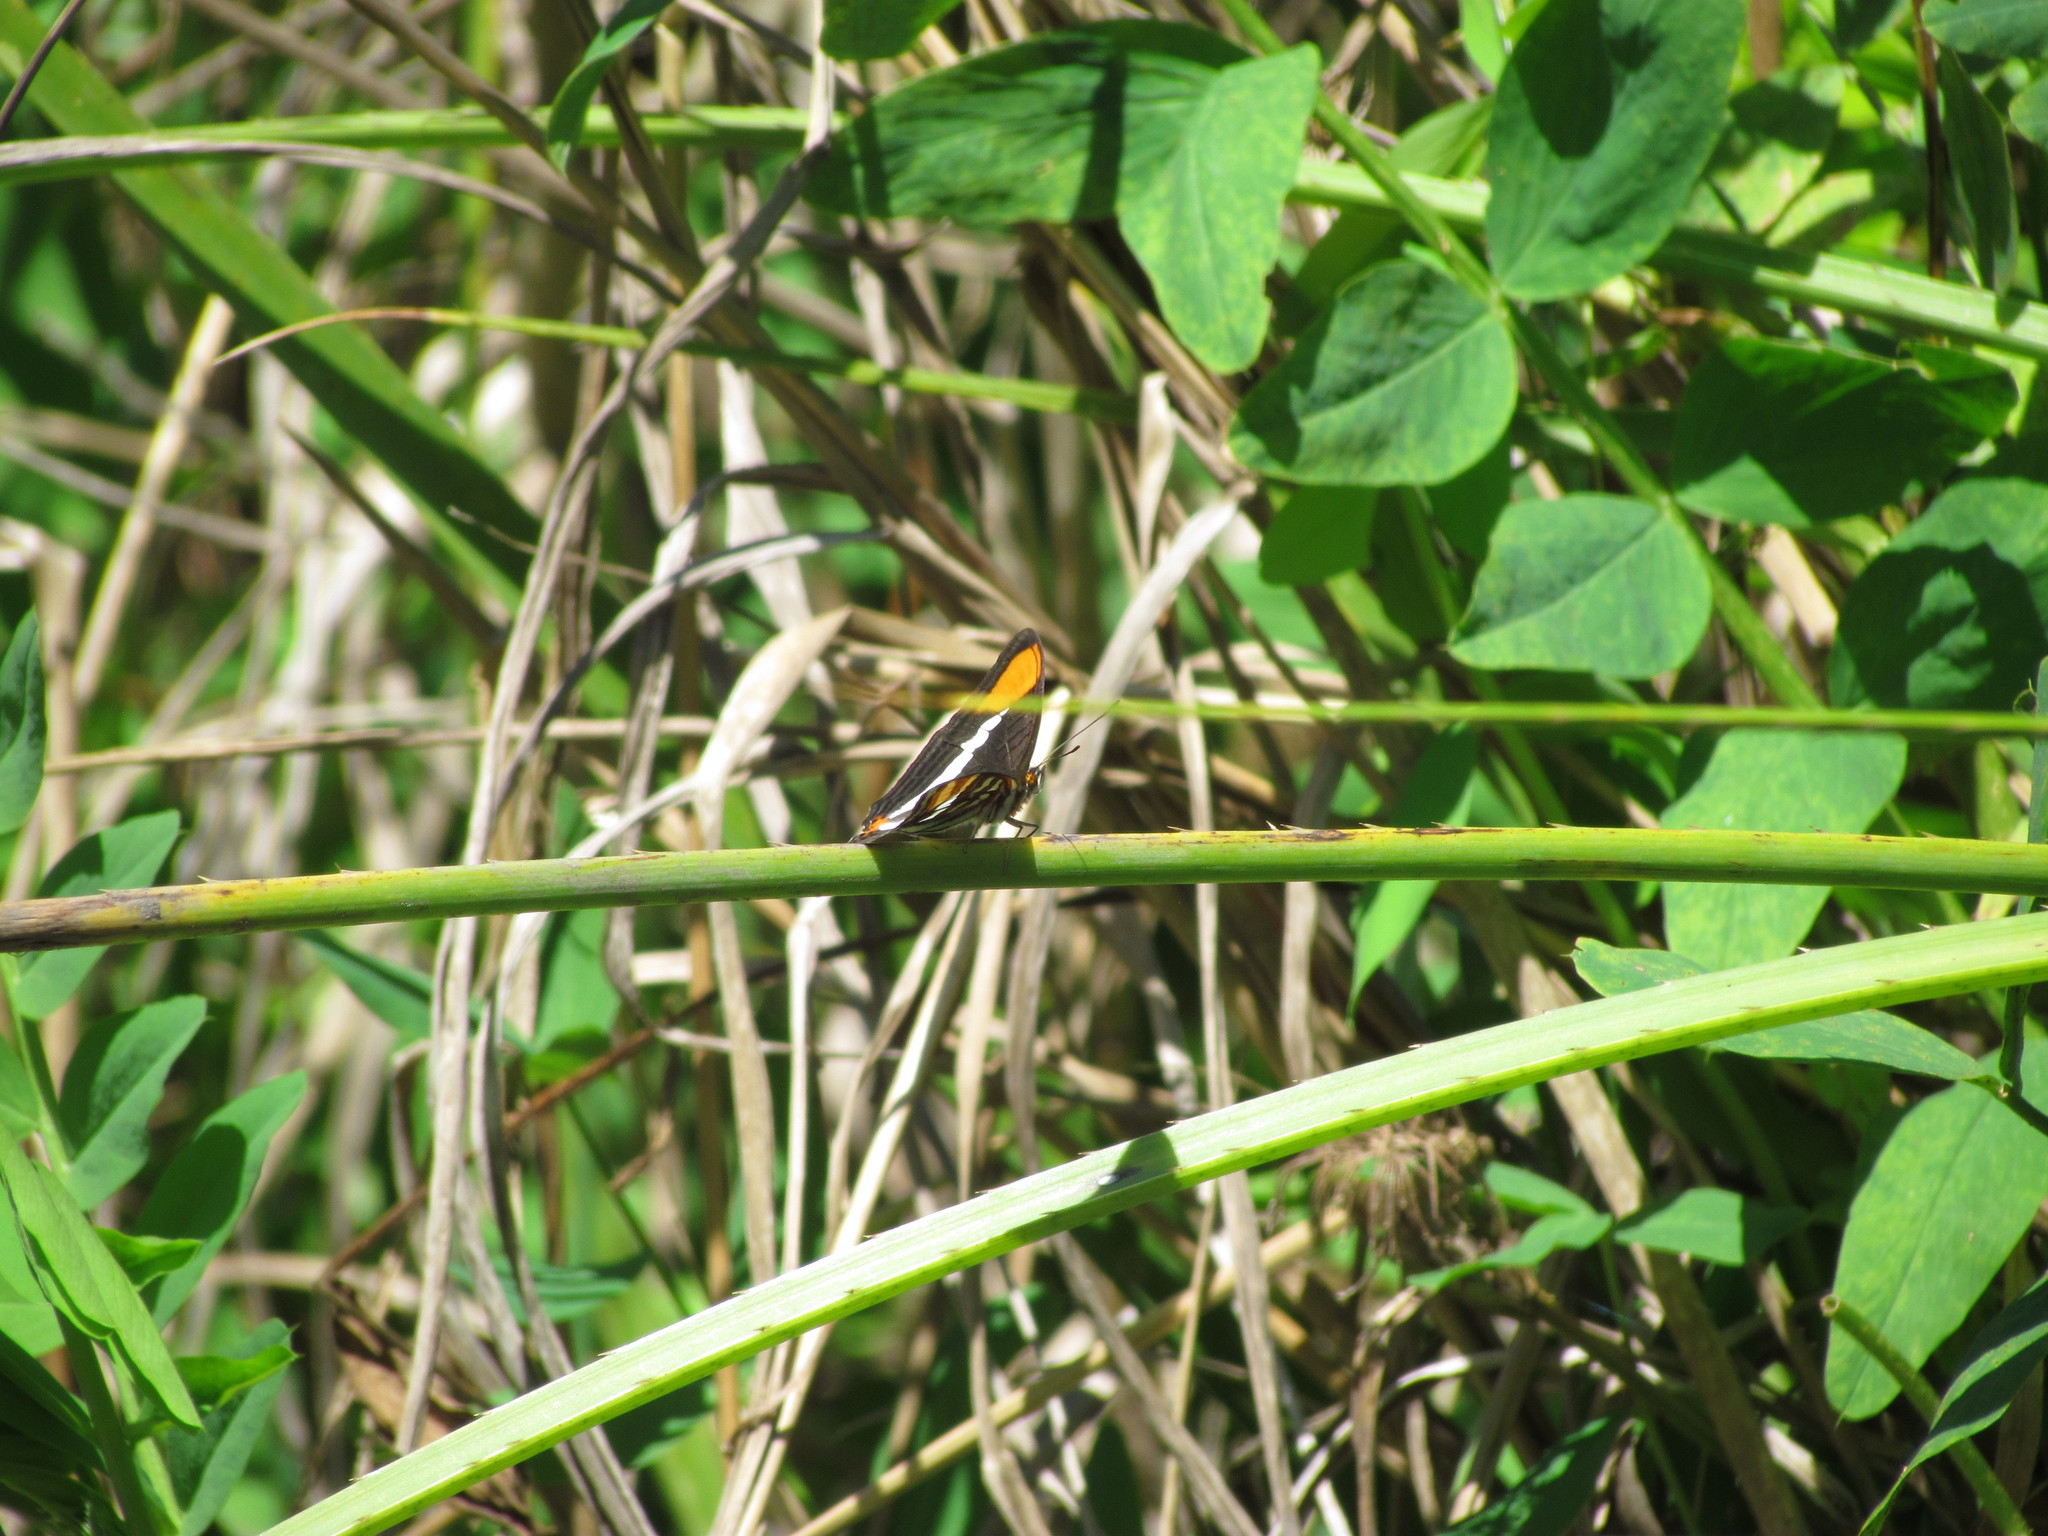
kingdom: Animalia
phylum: Arthropoda
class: Insecta
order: Lepidoptera
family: Nymphalidae
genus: Limenitis
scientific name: Limenitis syma
